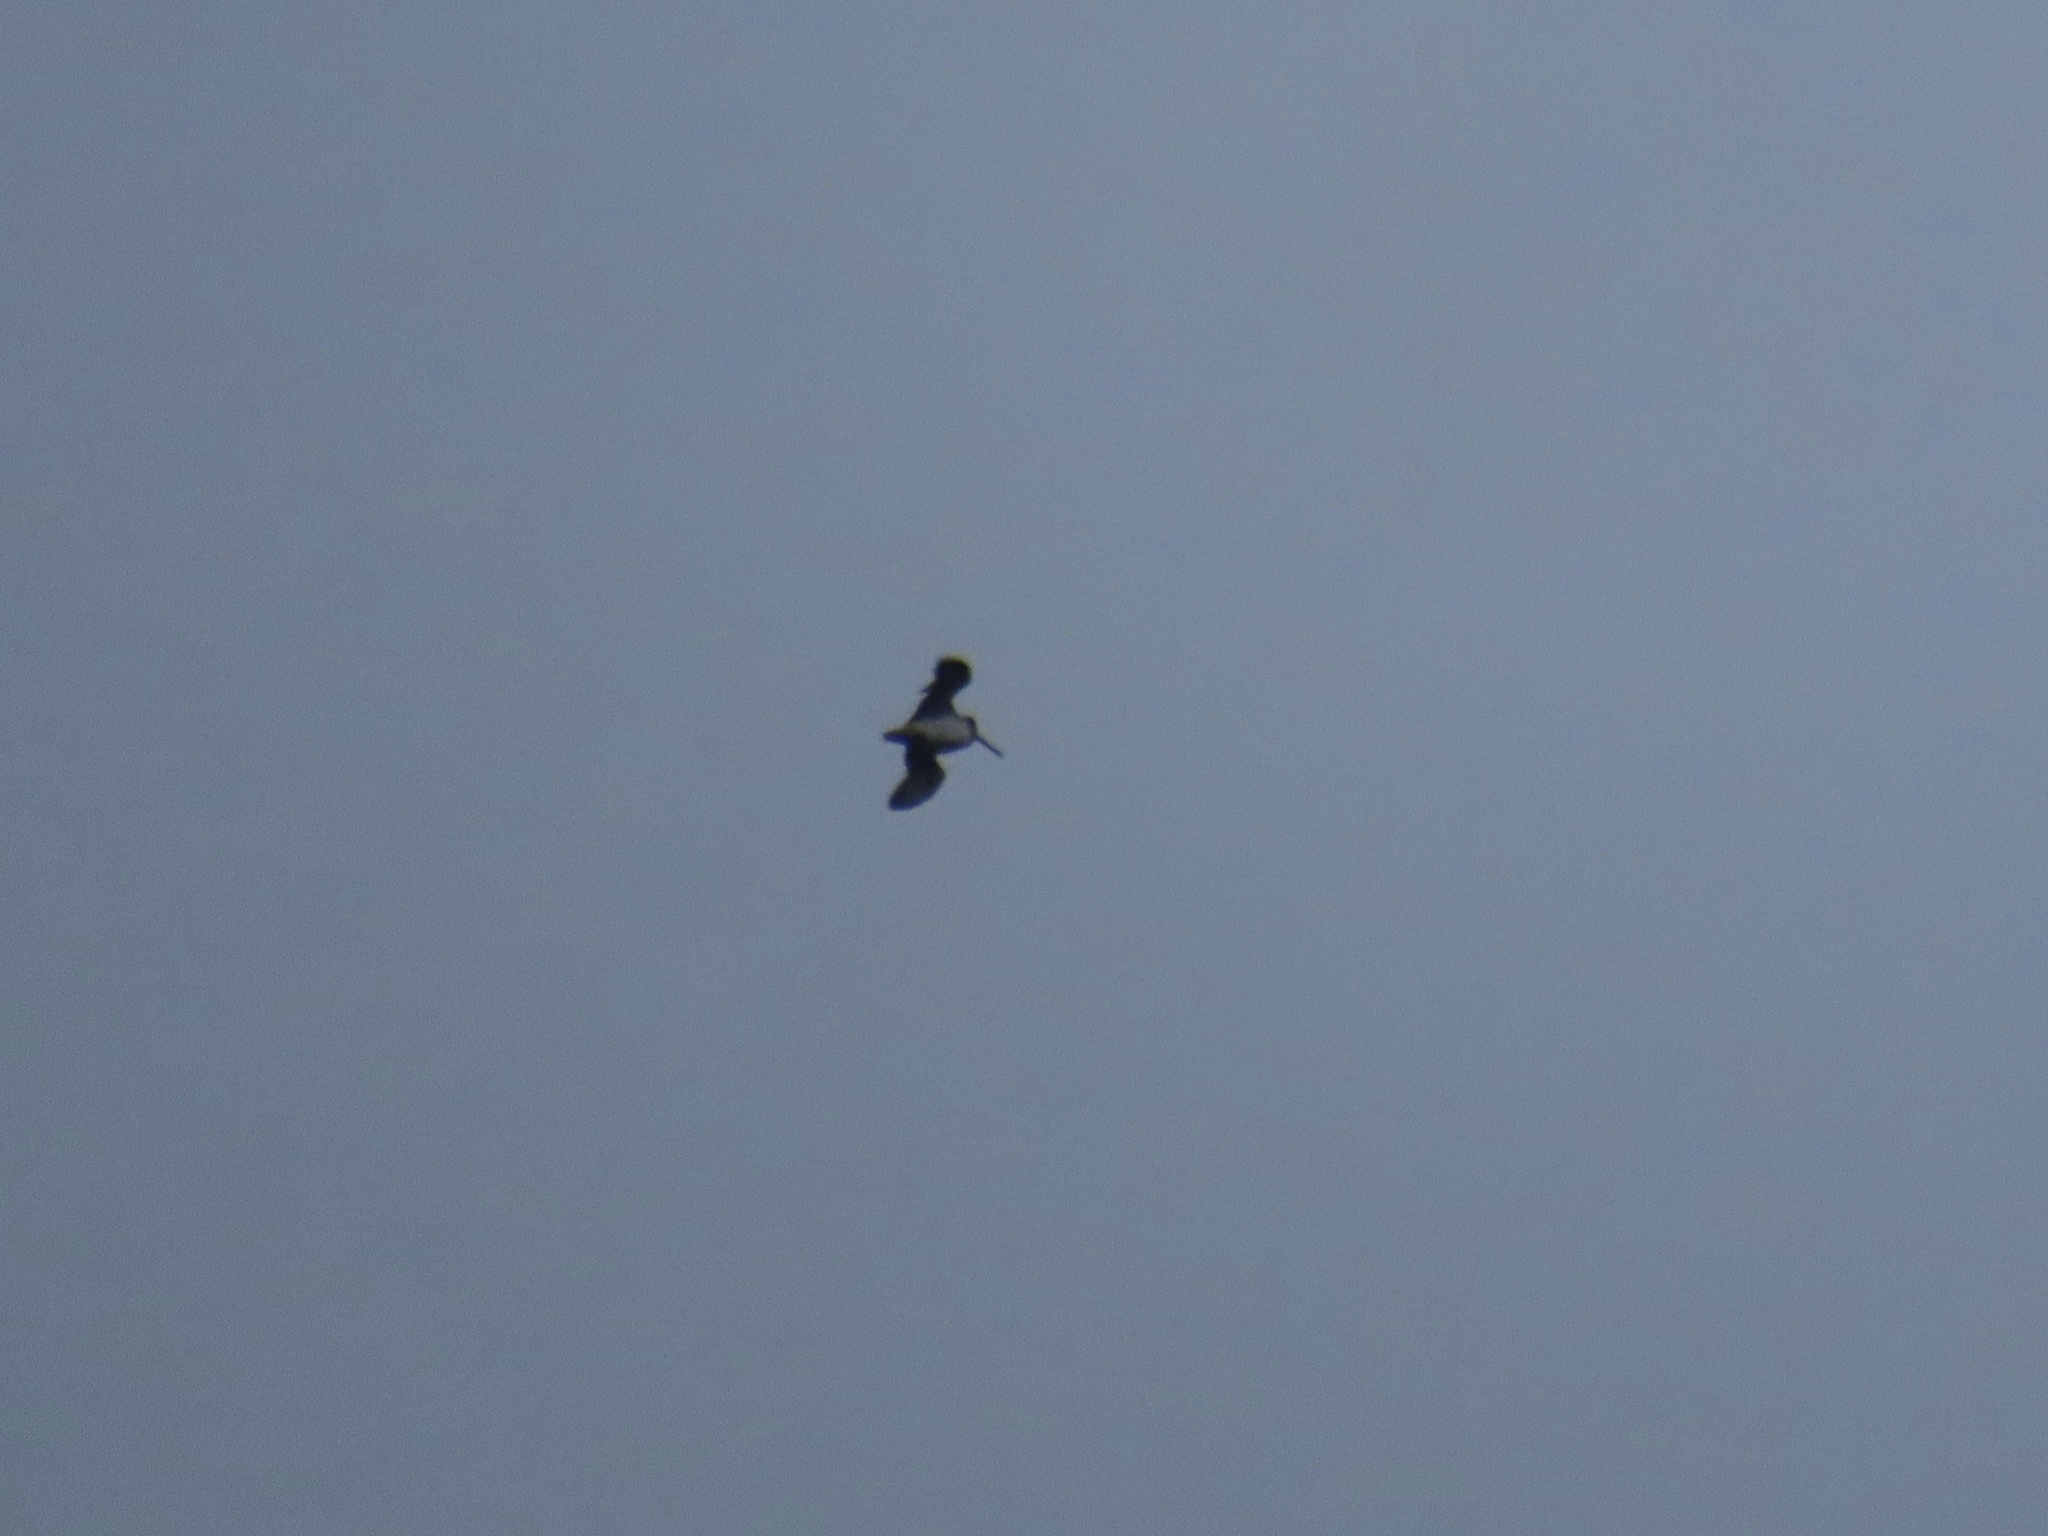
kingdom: Animalia
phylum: Chordata
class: Aves
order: Charadriiformes
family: Scolopacidae
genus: Gallinago
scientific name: Gallinago delicata
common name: Wilson's snipe
